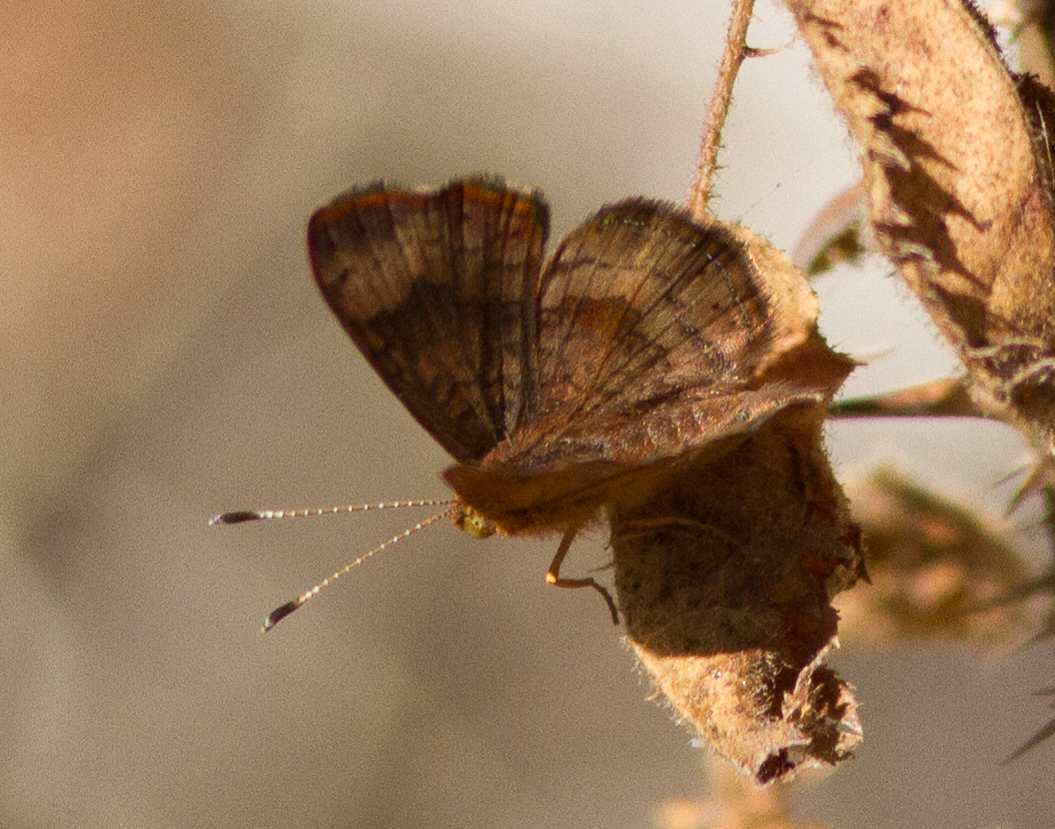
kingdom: Animalia
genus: Calephelis
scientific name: Calephelis nemesis
